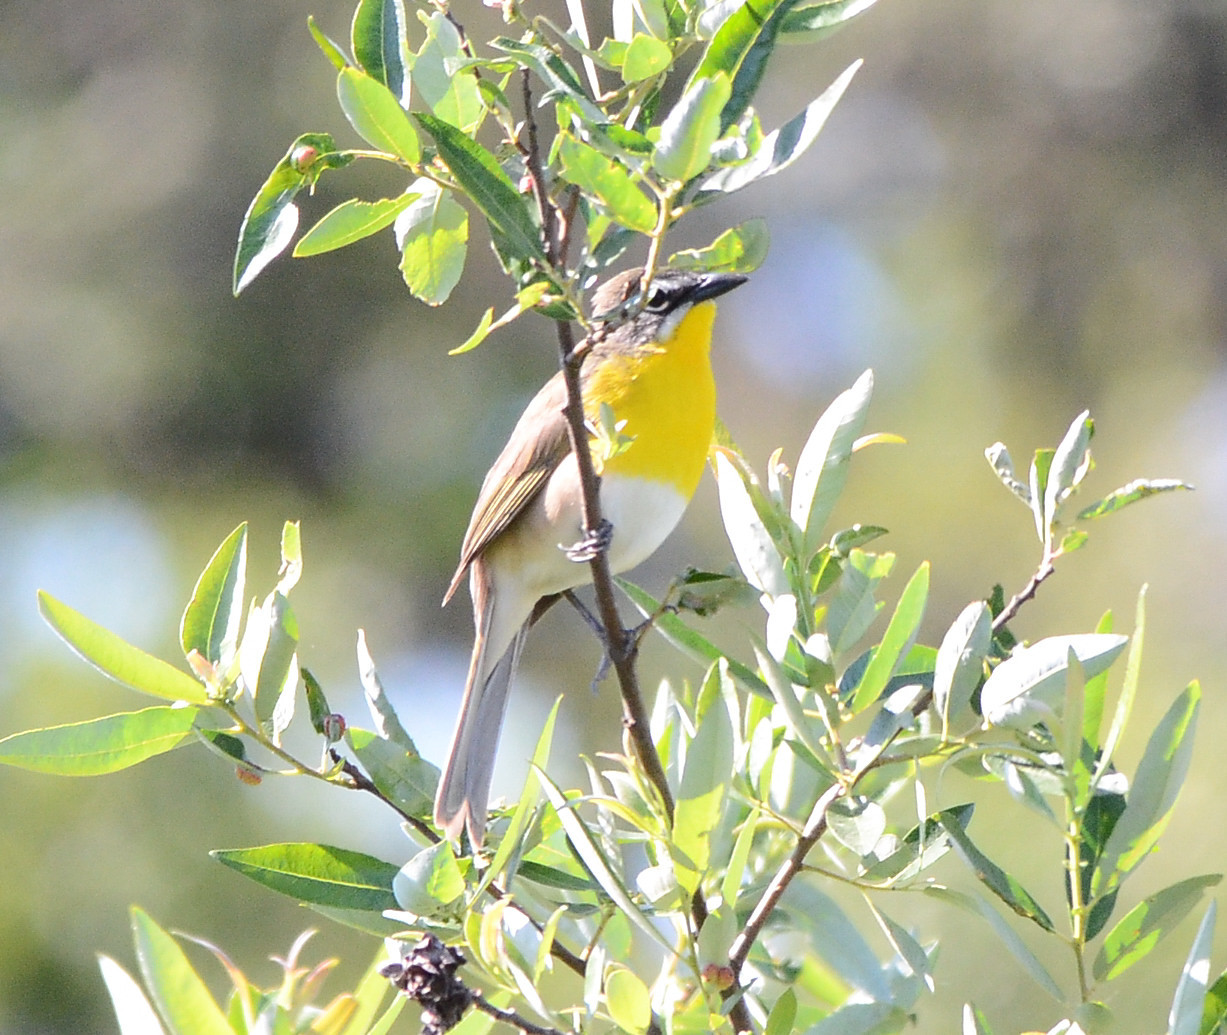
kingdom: Animalia
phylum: Chordata
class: Aves
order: Passeriformes
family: Parulidae
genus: Icteria
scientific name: Icteria virens
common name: Yellow-breasted chat
